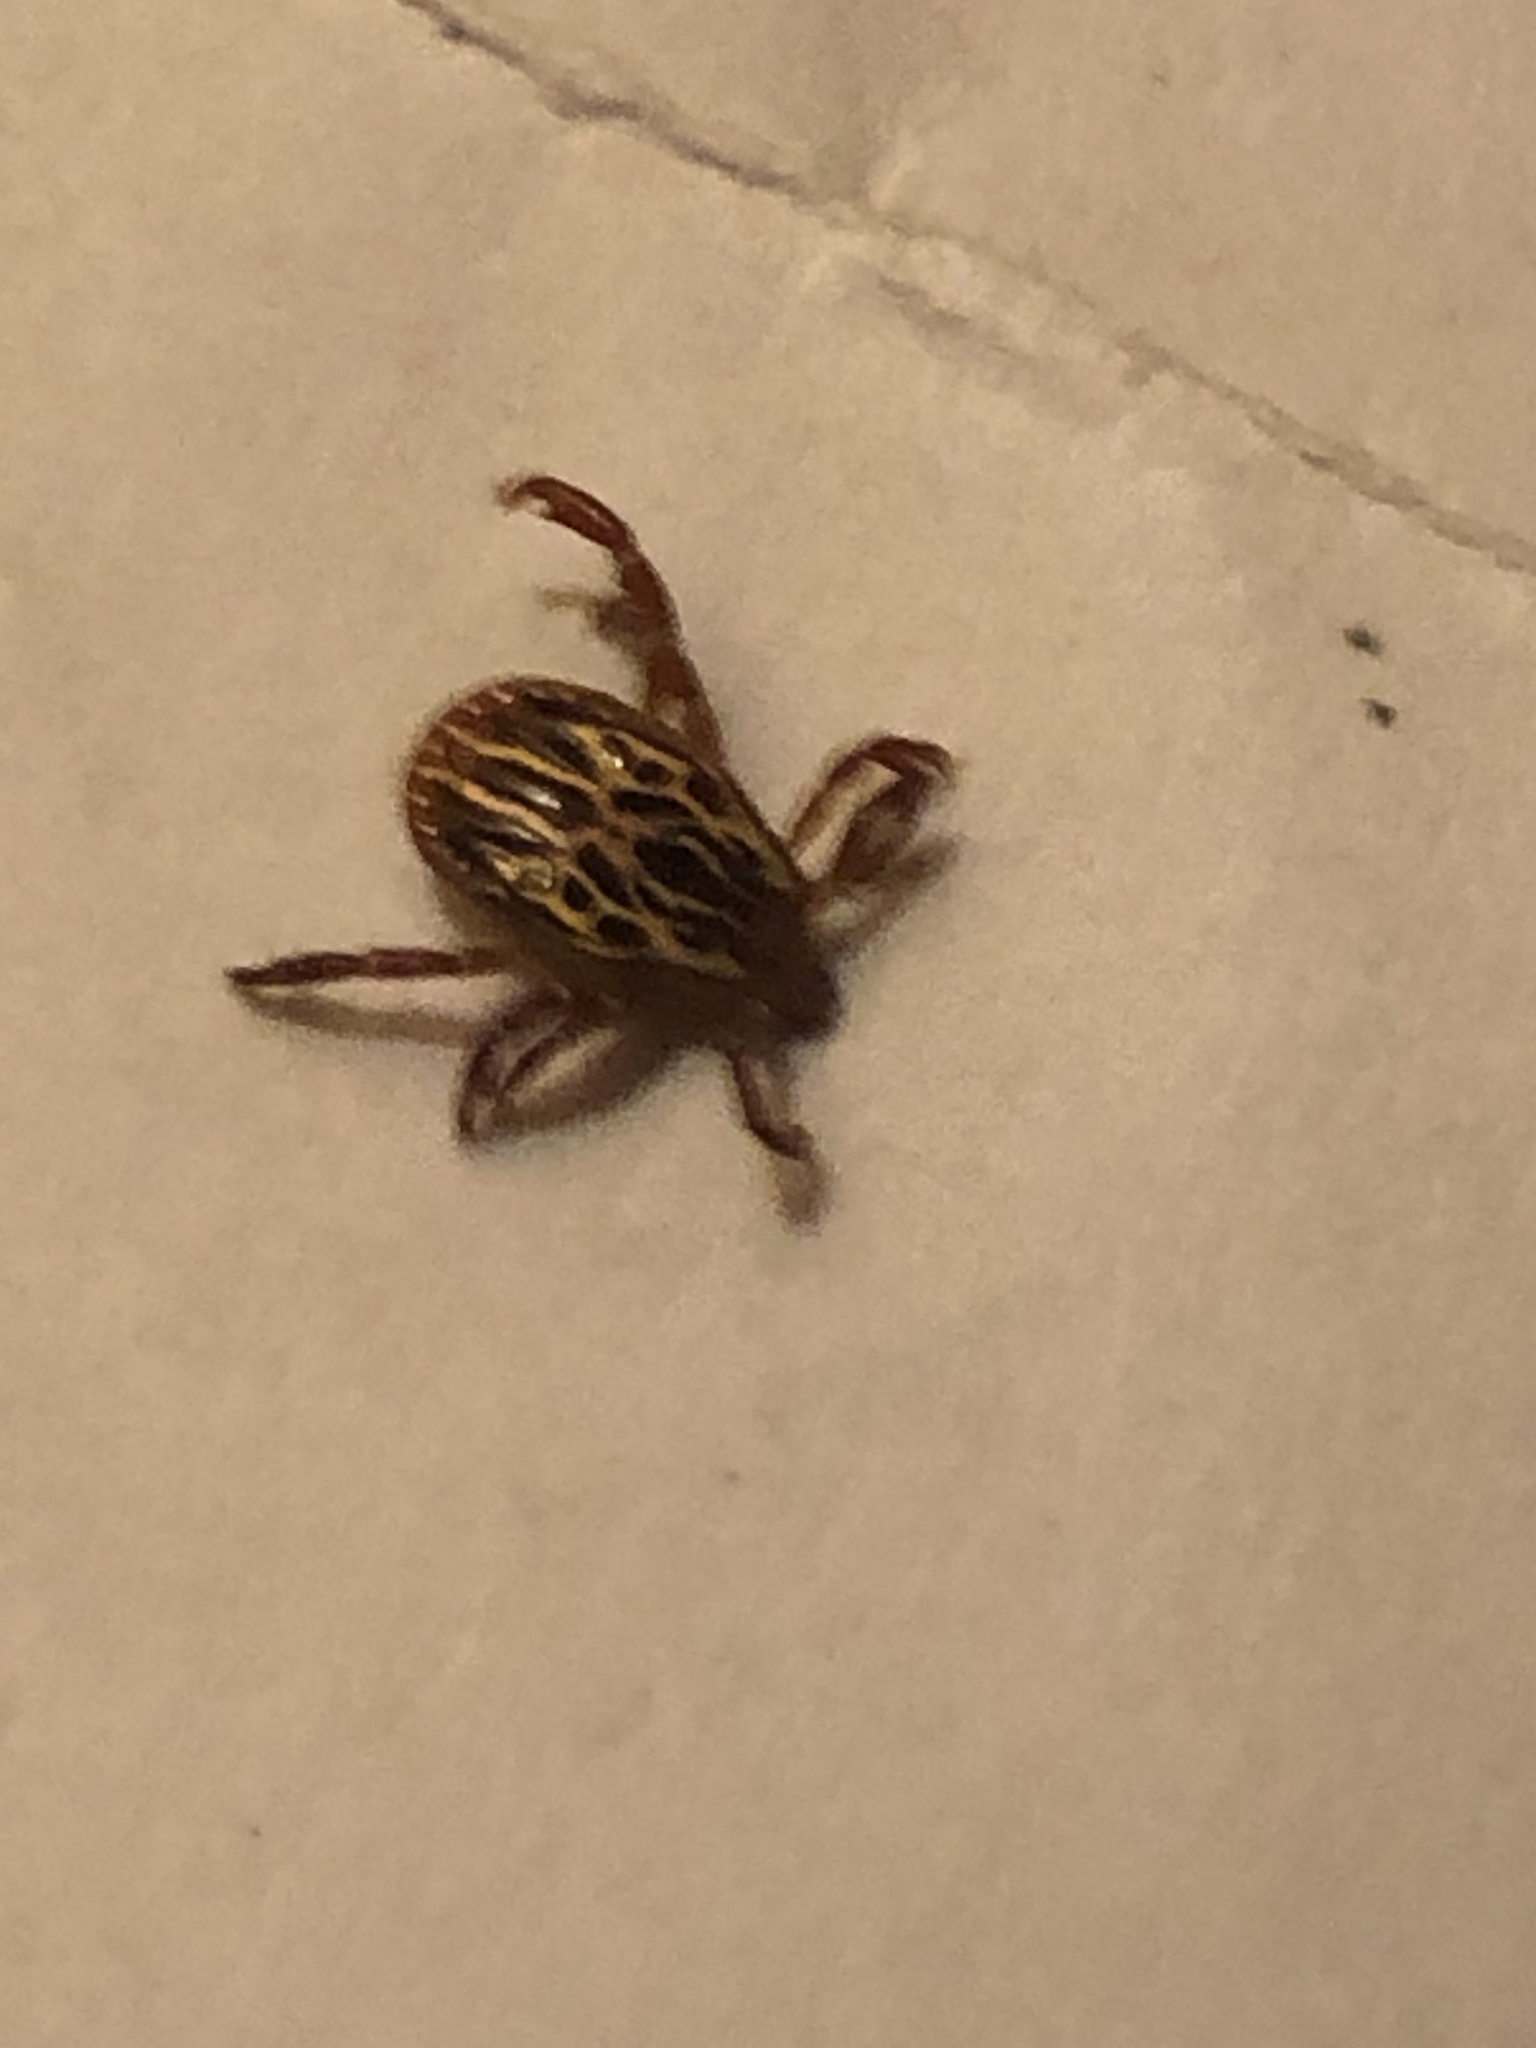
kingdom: Animalia
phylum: Arthropoda
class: Arachnida
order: Ixodida
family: Ixodidae
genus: Amblyomma
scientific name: Amblyomma maculatum
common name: Gulf coast tick
